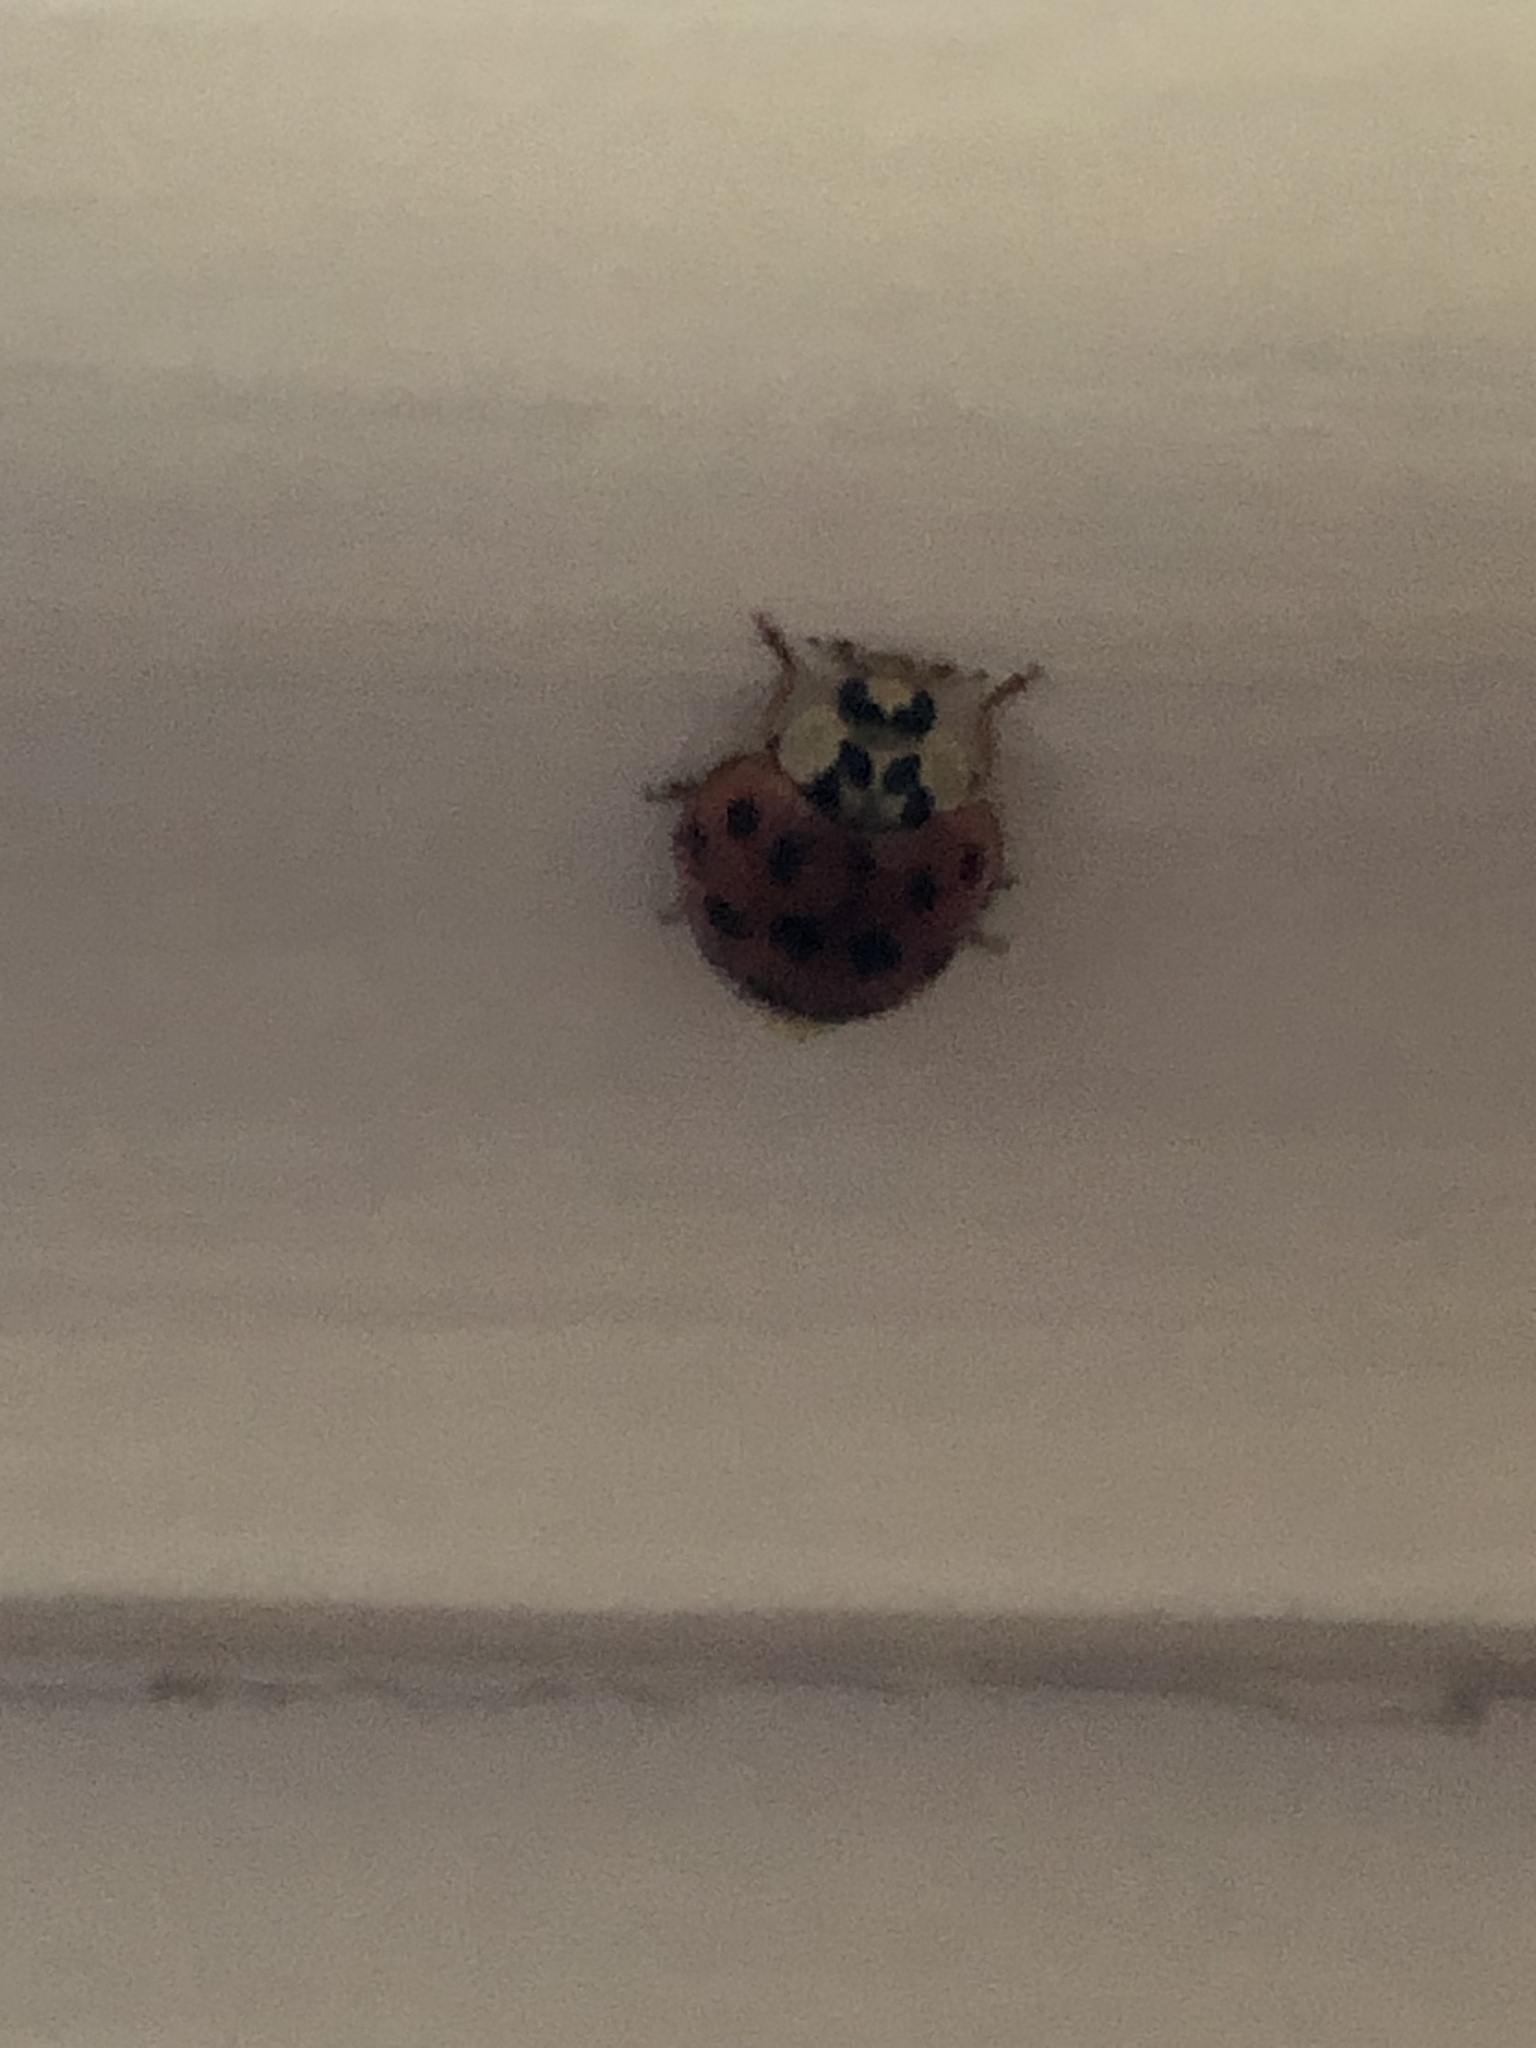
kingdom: Animalia
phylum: Arthropoda
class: Insecta
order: Coleoptera
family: Coccinellidae
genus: Harmonia
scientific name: Harmonia axyridis
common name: Harlequin ladybird
